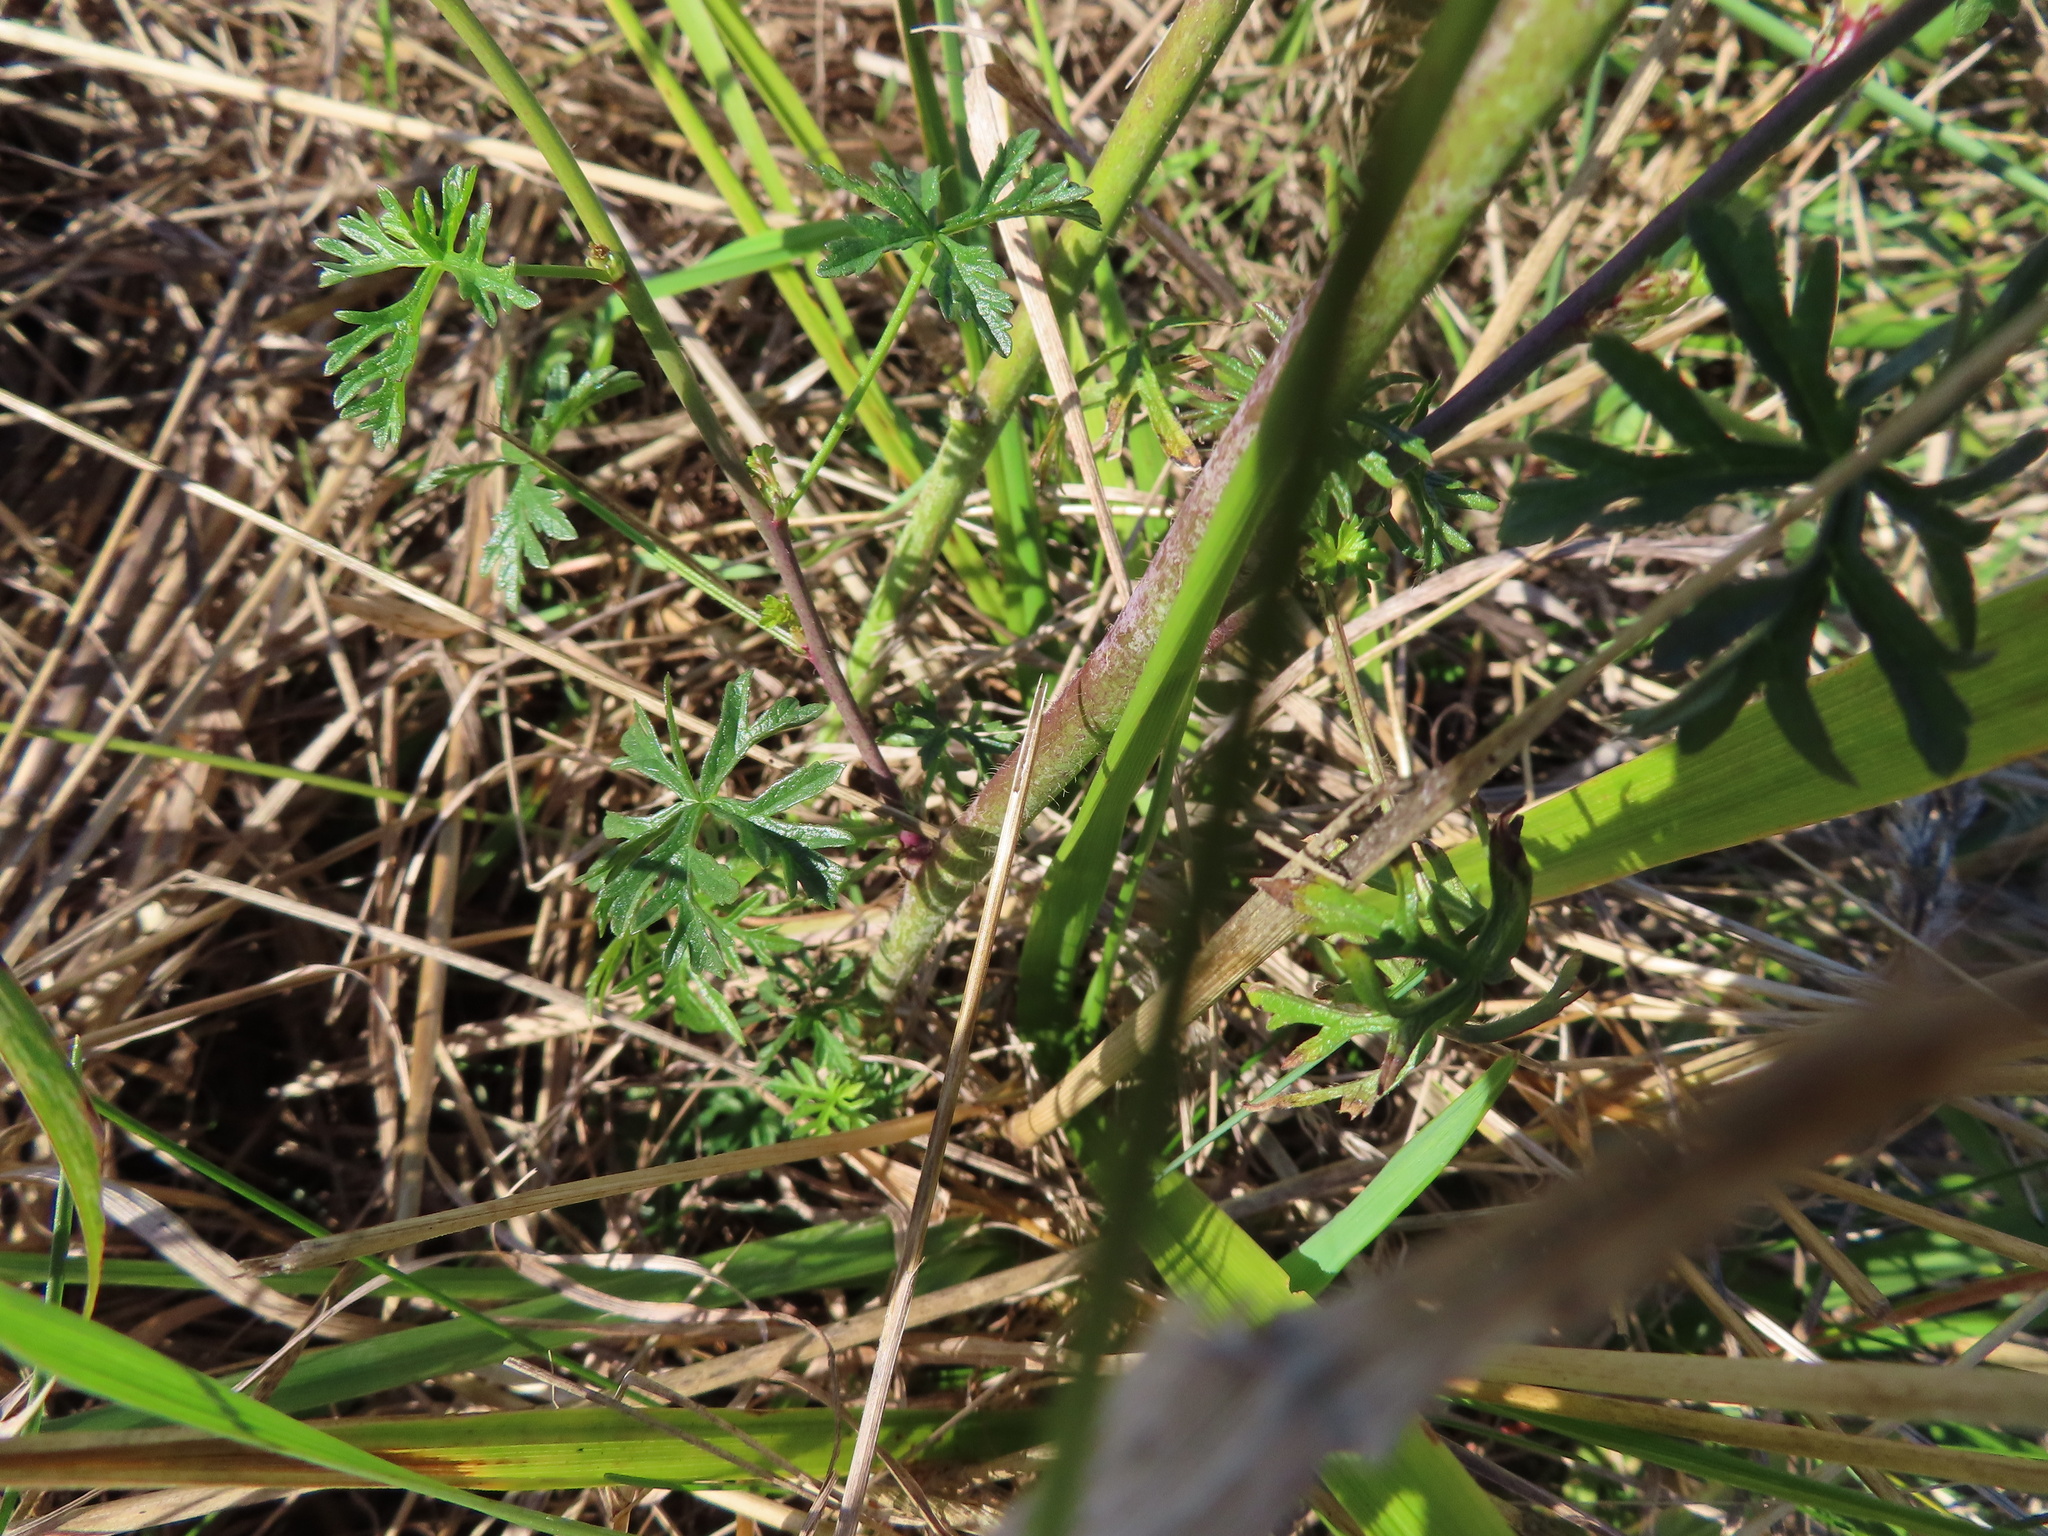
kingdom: Plantae
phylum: Tracheophyta
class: Magnoliopsida
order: Malvales
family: Malvaceae
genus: Malva
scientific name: Malva moschata
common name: Musk mallow
